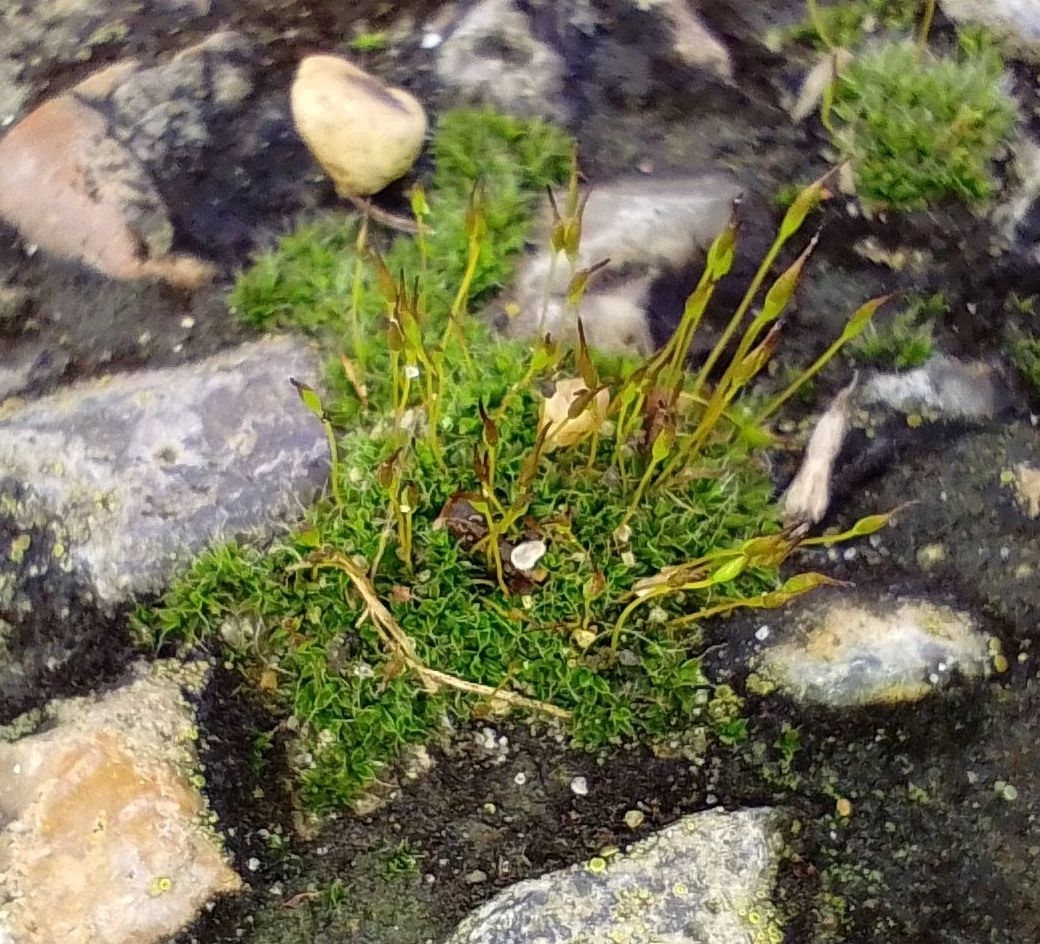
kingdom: Plantae
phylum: Bryophyta
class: Bryopsida
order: Pottiales
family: Pottiaceae
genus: Tortula
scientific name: Tortula muralis
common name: Wall screw-moss
